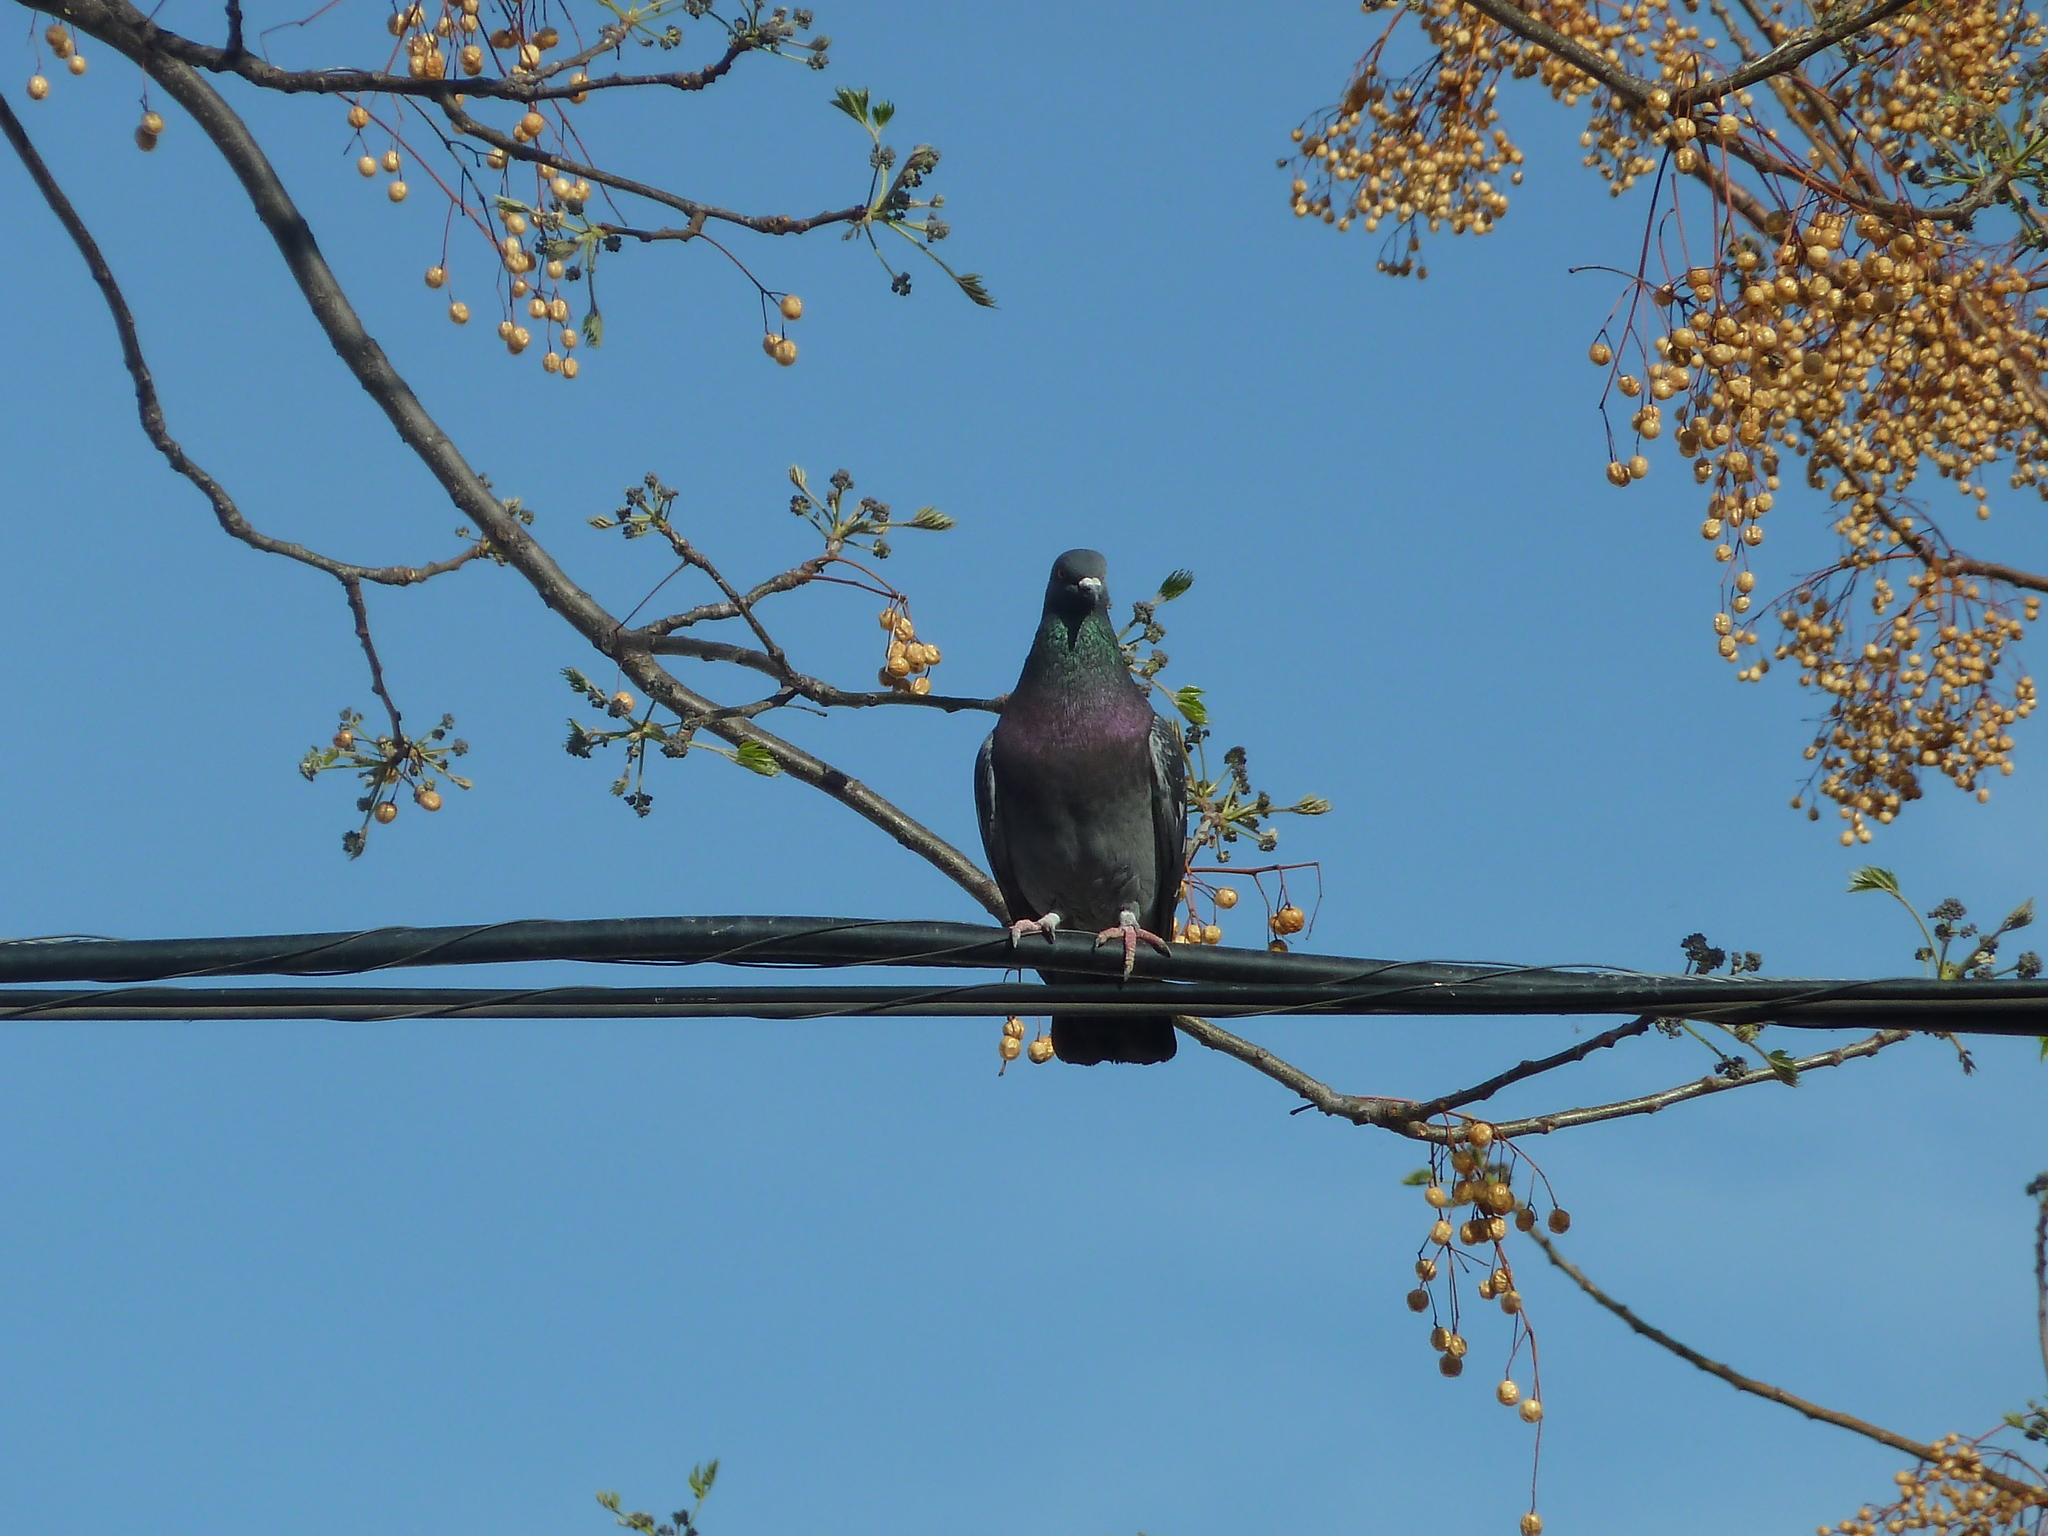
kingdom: Animalia
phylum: Chordata
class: Aves
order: Columbiformes
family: Columbidae
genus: Columba
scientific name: Columba livia
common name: Rock pigeon
